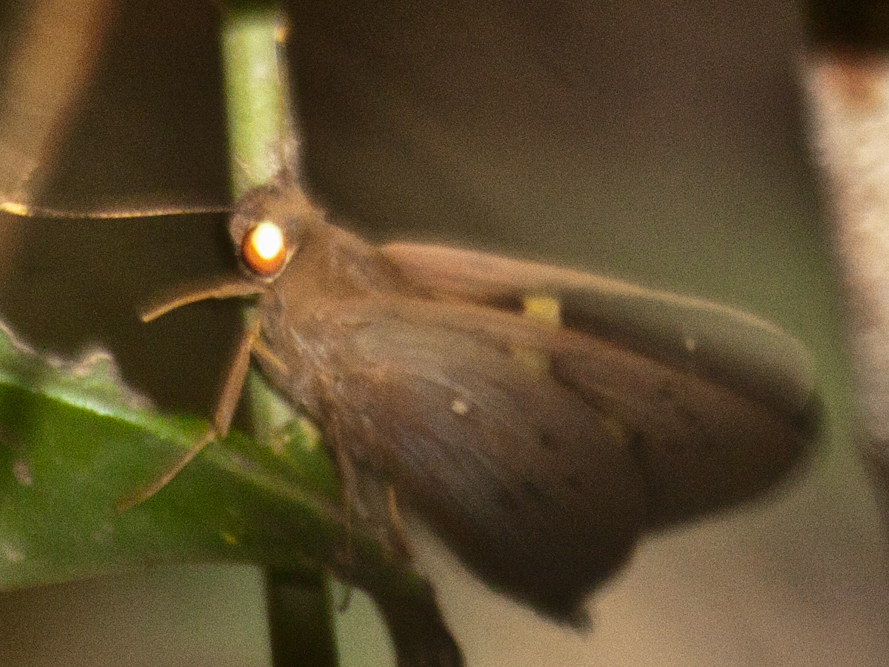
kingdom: Animalia
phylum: Arthropoda
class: Insecta
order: Lepidoptera
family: Hesperiidae
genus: Hidari
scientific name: Hidari irava
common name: Coconut skipper
